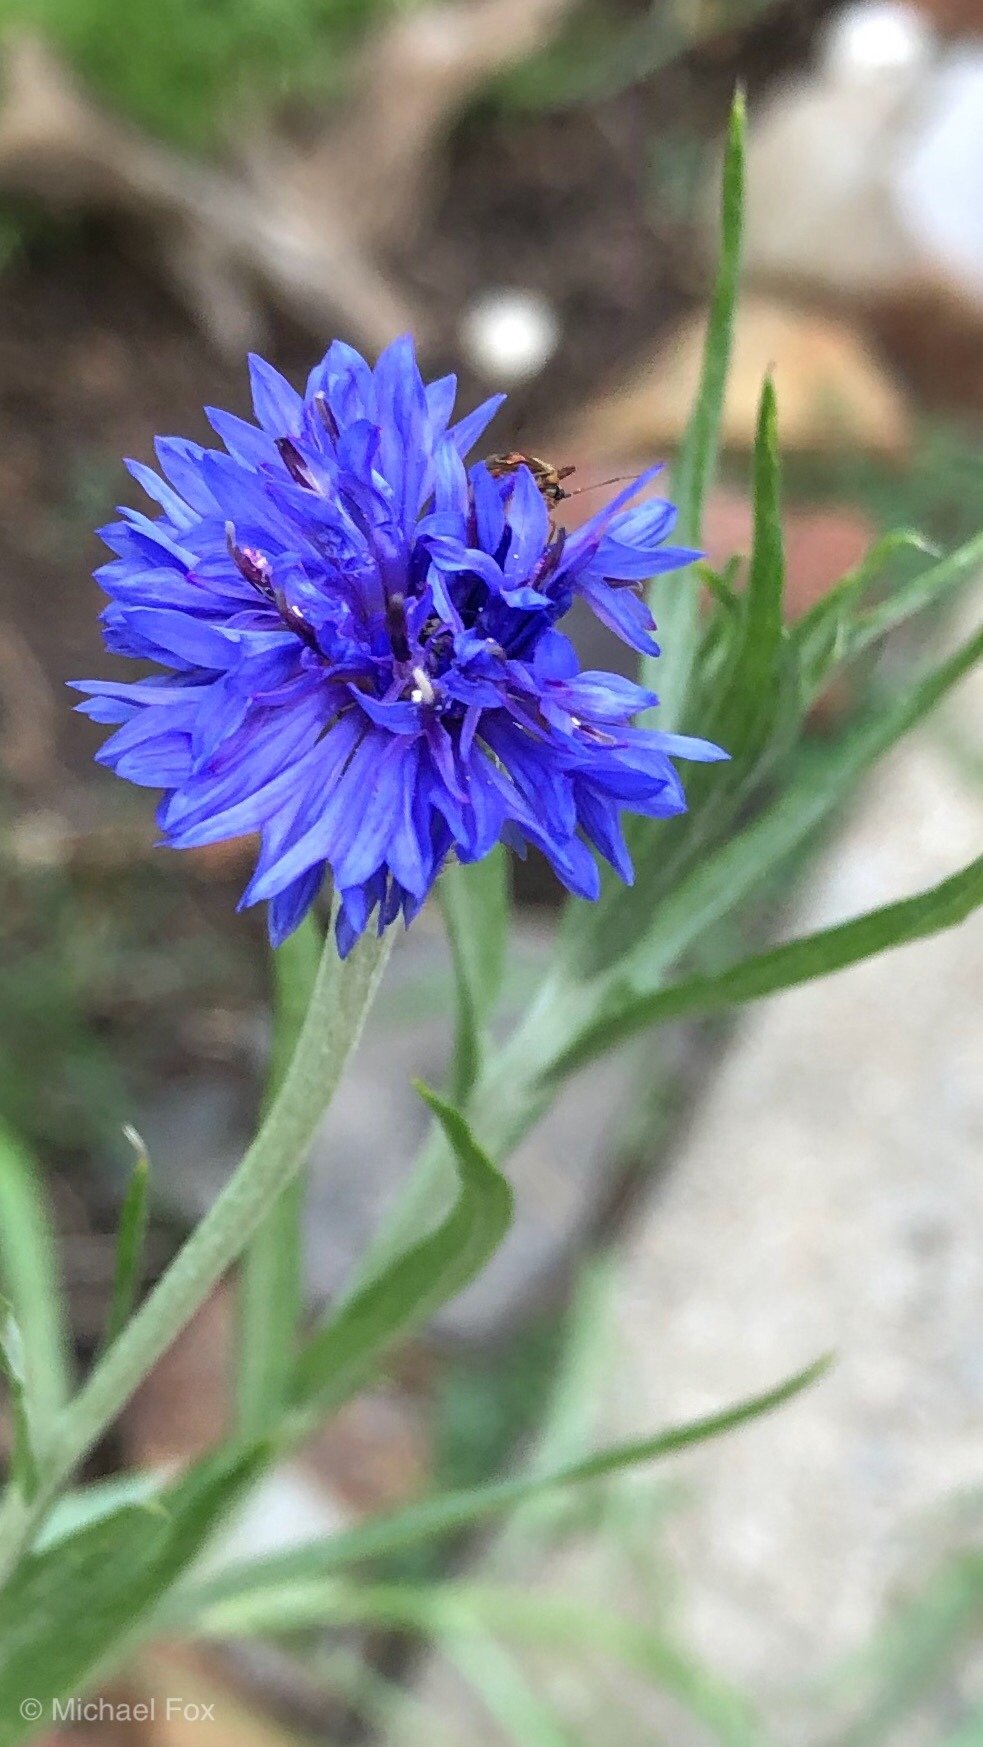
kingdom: Plantae
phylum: Tracheophyta
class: Magnoliopsida
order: Asterales
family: Asteraceae
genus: Centaurea
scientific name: Centaurea cyanus
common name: Cornflower
